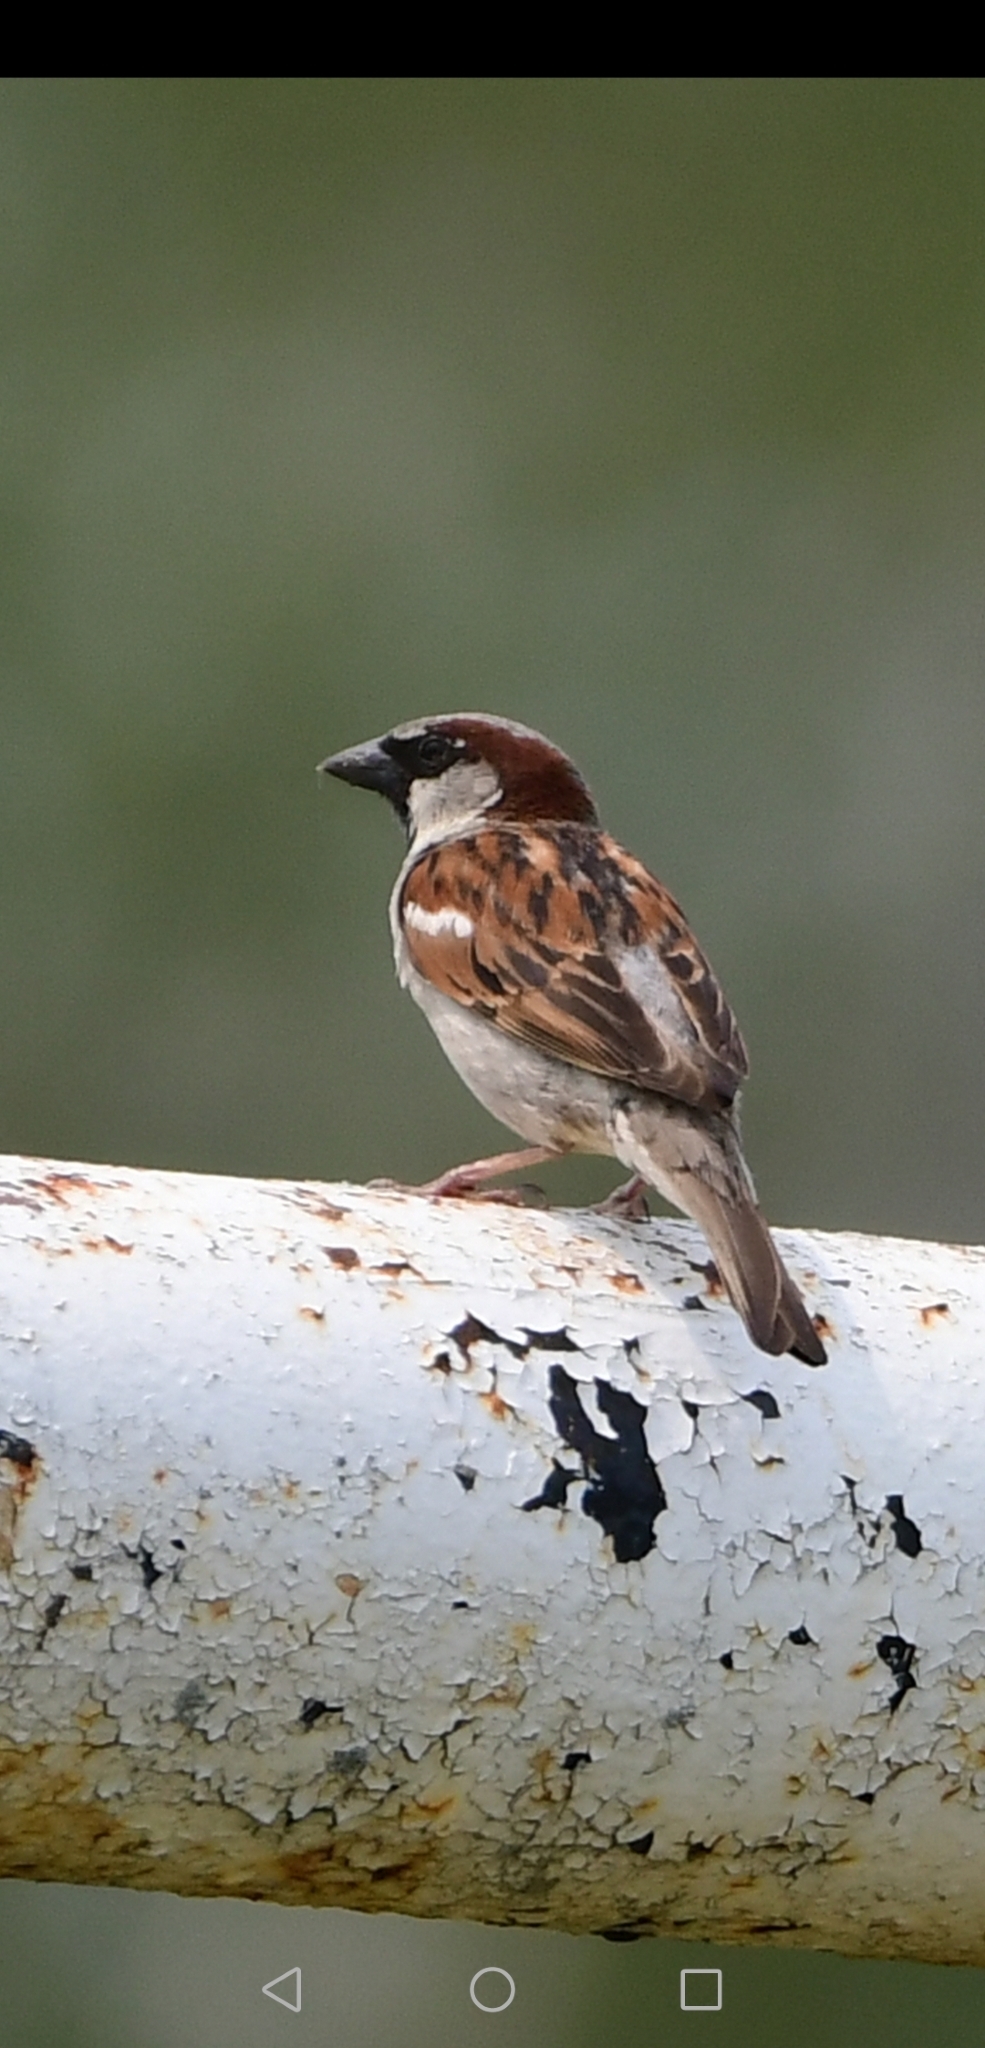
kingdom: Animalia
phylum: Chordata
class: Aves
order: Passeriformes
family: Passeridae
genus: Passer
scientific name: Passer domesticus
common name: House sparrow
